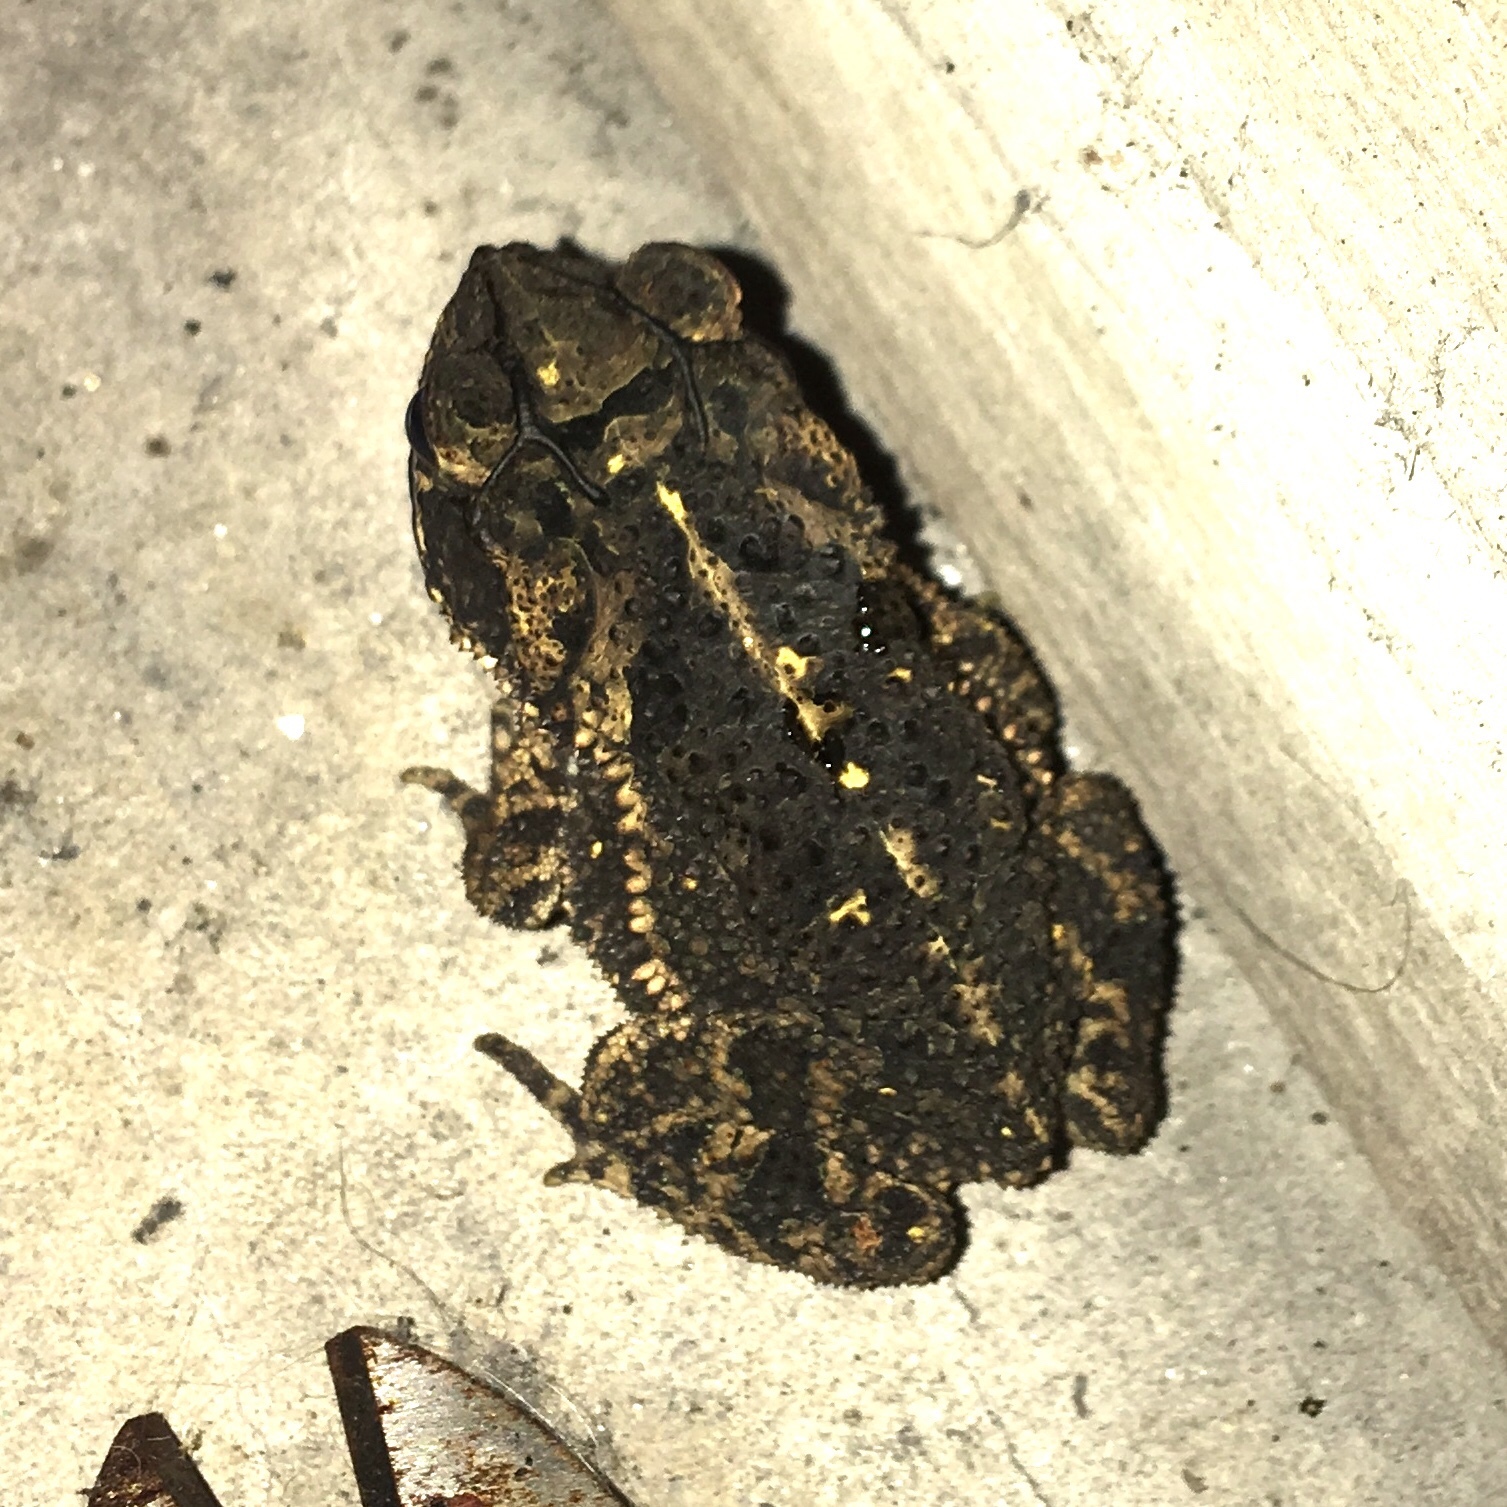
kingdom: Animalia
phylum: Chordata
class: Amphibia
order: Anura
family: Bufonidae
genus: Incilius
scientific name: Incilius nebulifer
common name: Gulf coast toad
